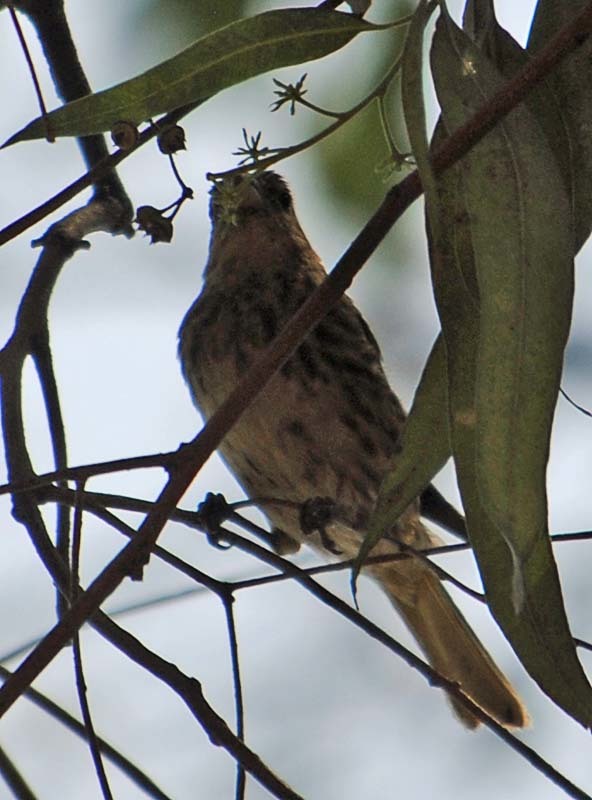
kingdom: Animalia
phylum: Chordata
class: Aves
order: Passeriformes
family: Fringillidae
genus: Haemorhous
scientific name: Haemorhous mexicanus
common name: House finch
